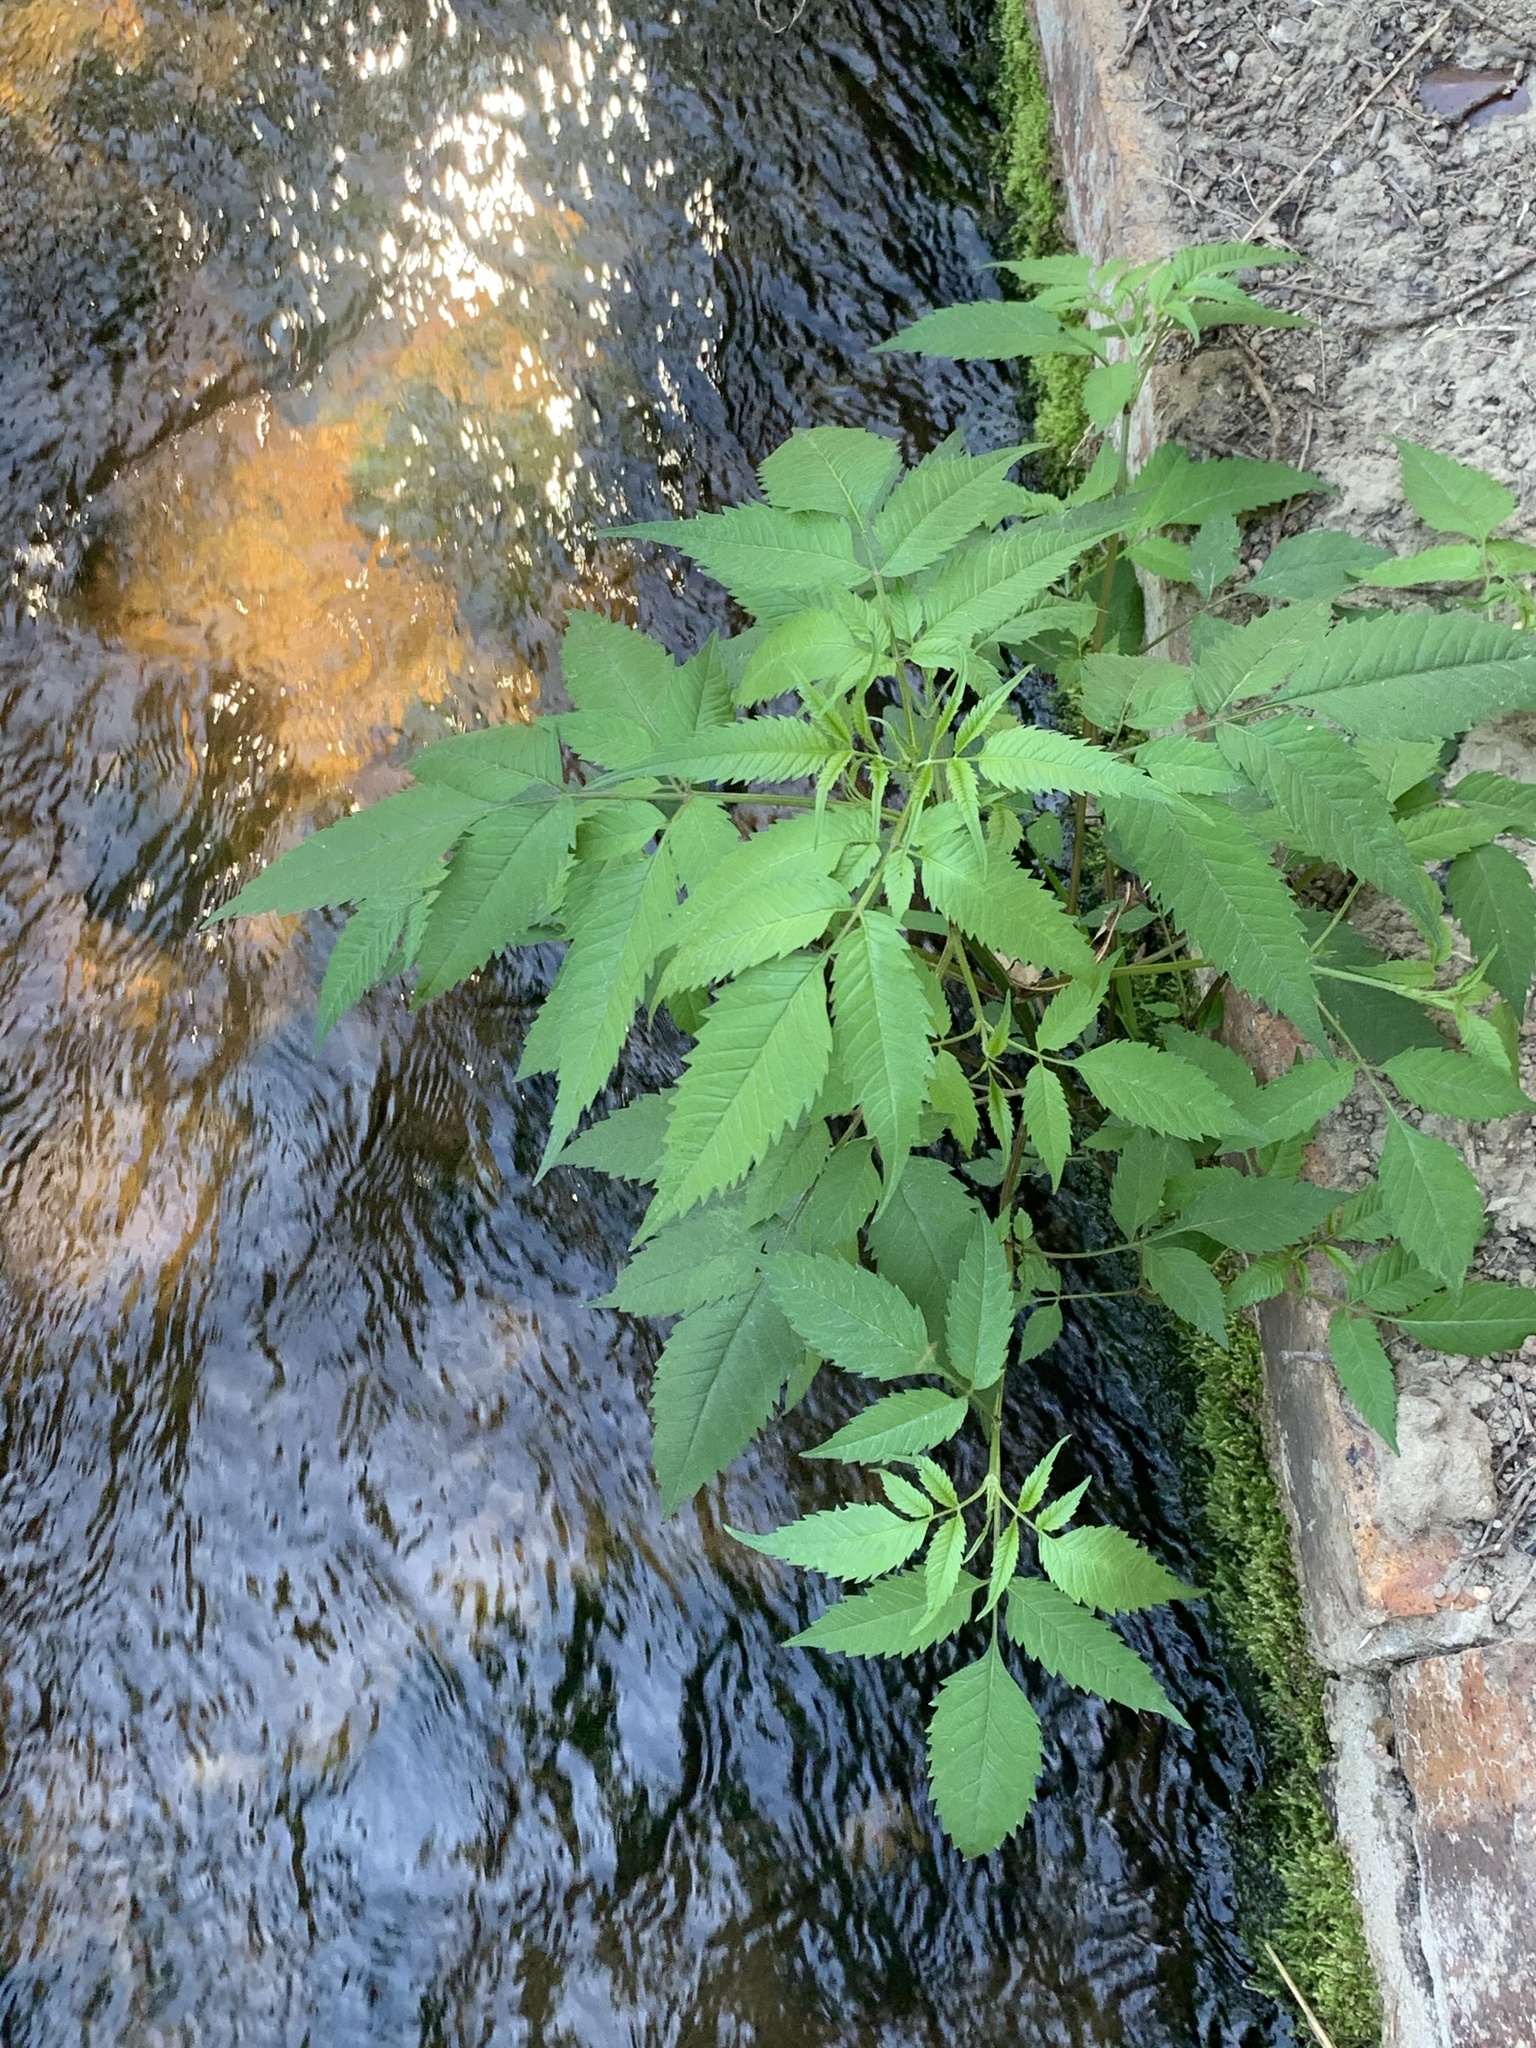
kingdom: Plantae
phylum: Tracheophyta
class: Magnoliopsida
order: Asterales
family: Asteraceae
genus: Bidens
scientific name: Bidens frondosa
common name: Beggarticks
